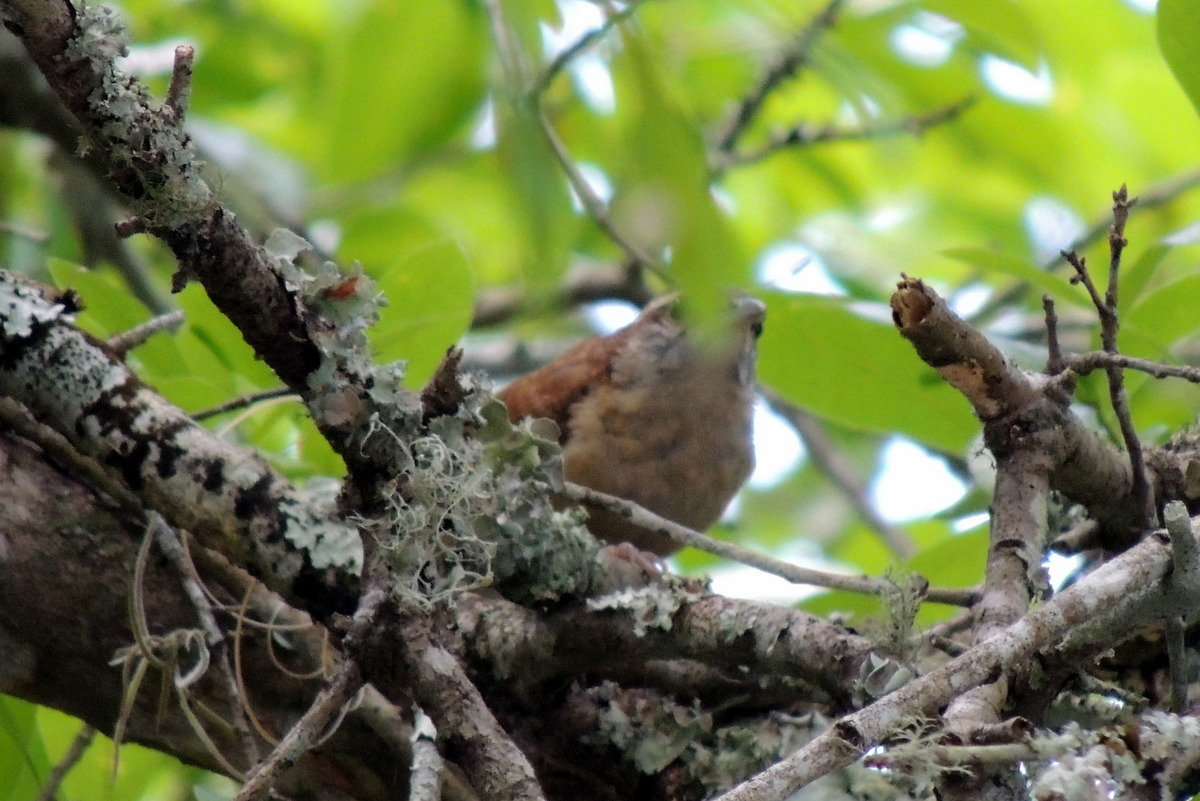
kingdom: Animalia
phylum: Chordata
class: Aves
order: Passeriformes
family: Troglodytidae
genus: Thryothorus
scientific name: Thryothorus ludovicianus
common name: Carolina wren
